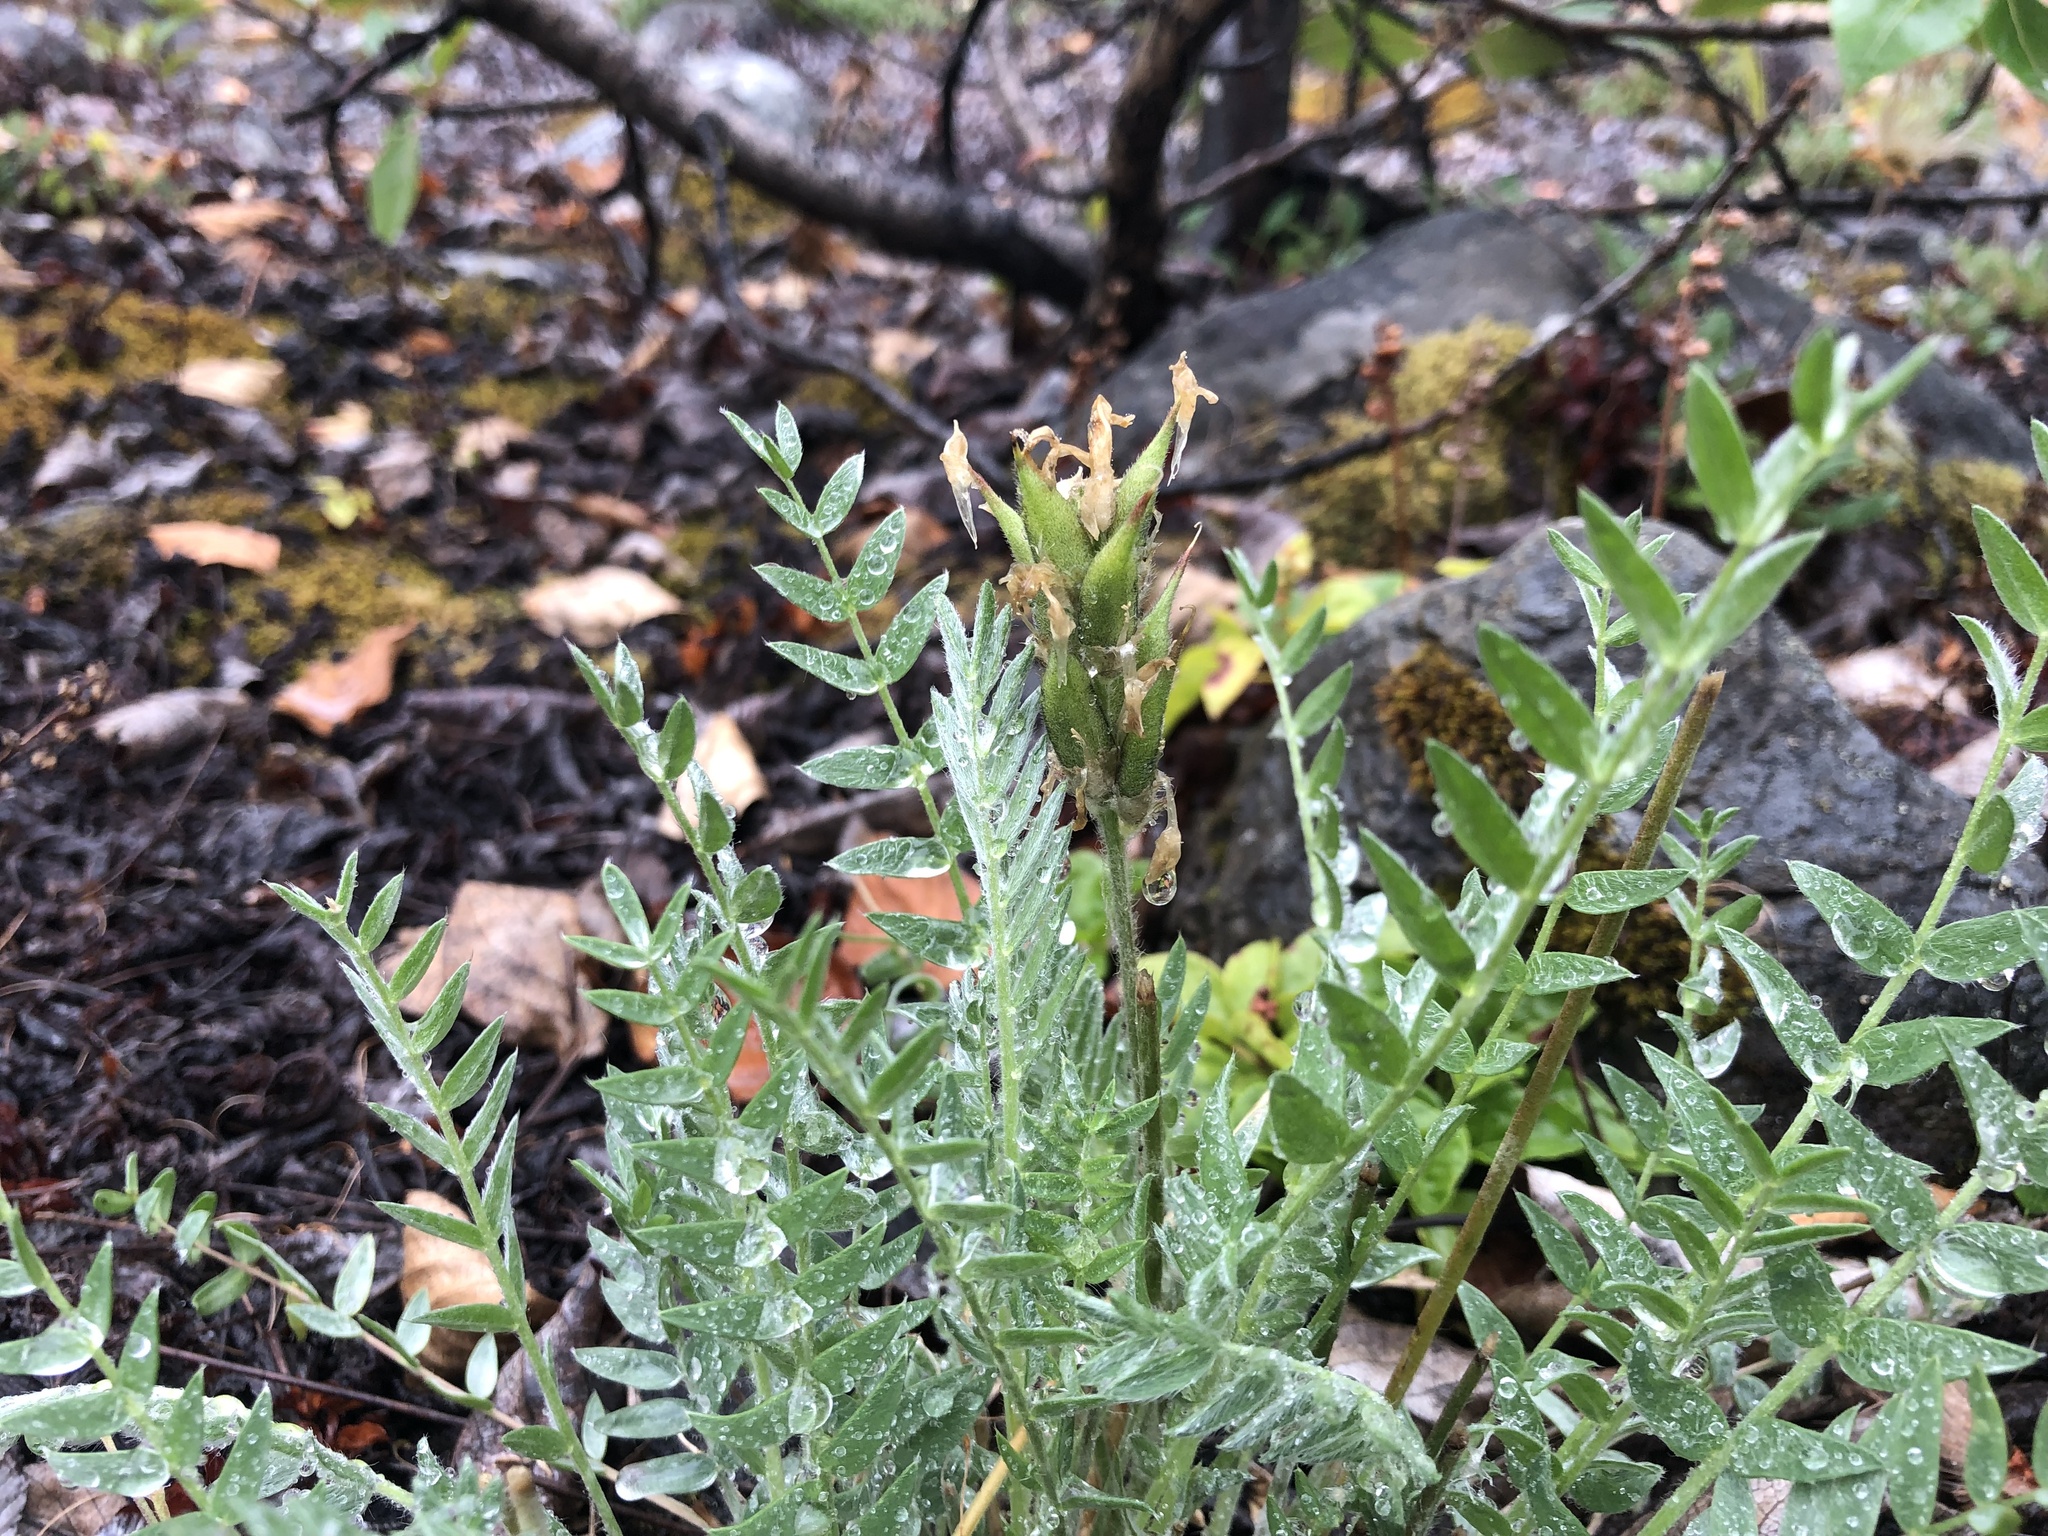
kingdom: Plantae
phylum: Tracheophyta
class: Magnoliopsida
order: Fabales
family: Fabaceae
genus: Oxytropis
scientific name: Oxytropis campestris
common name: Field locoweed
